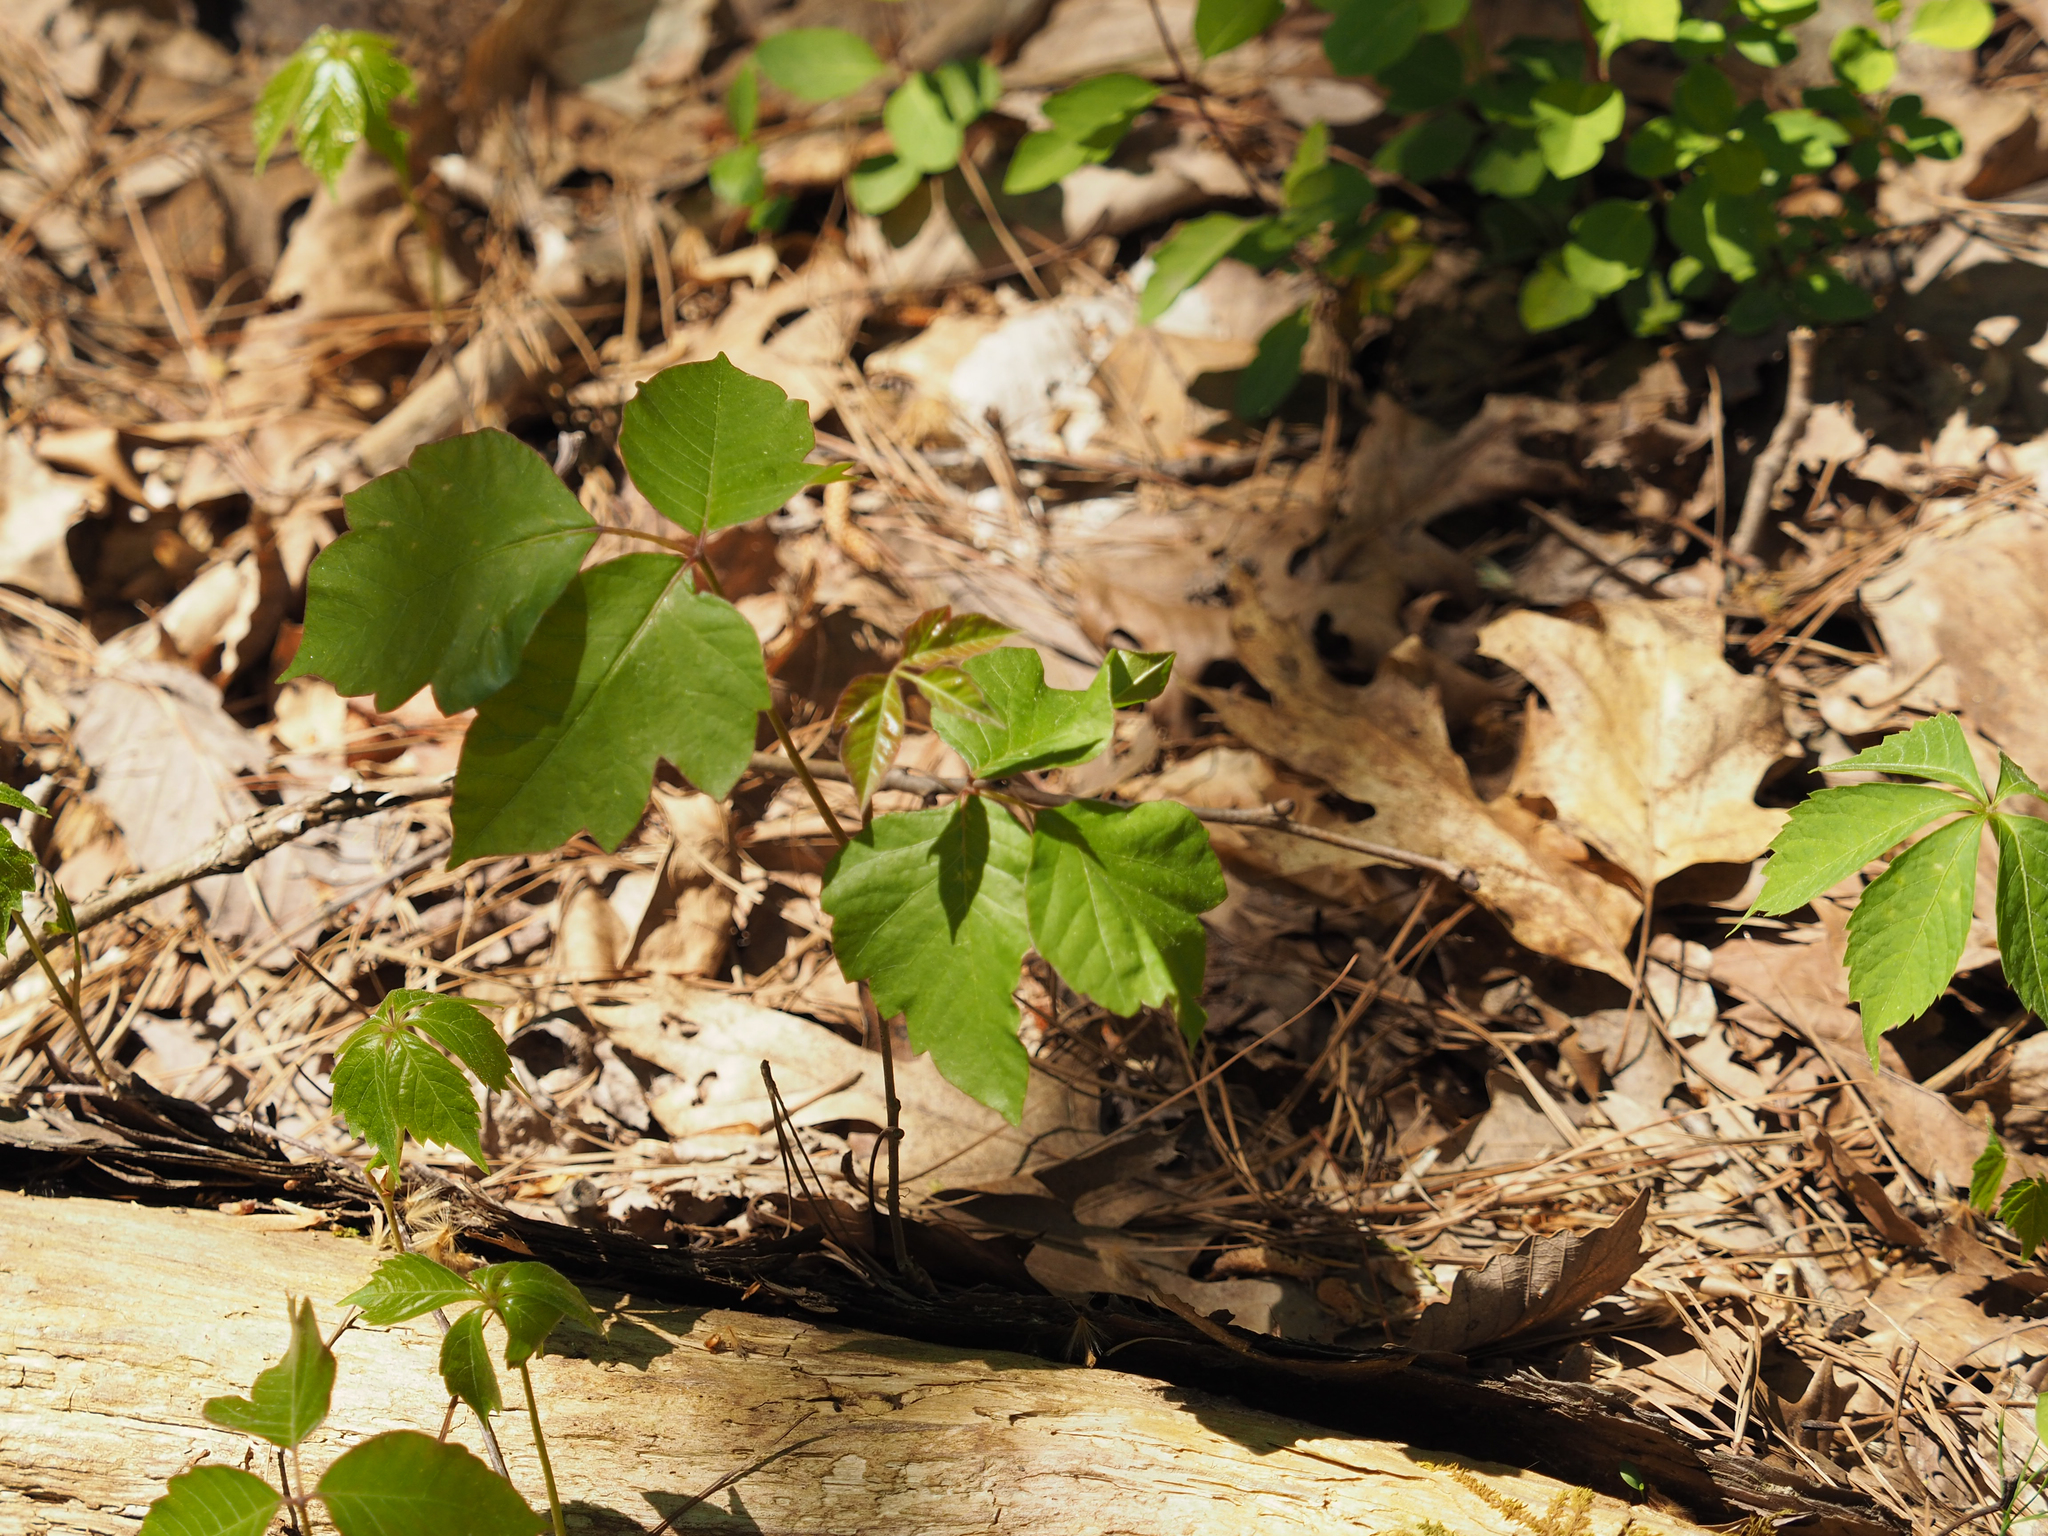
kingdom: Plantae
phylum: Tracheophyta
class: Magnoliopsida
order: Sapindales
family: Anacardiaceae
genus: Toxicodendron
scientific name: Toxicodendron radicans
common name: Poison ivy
